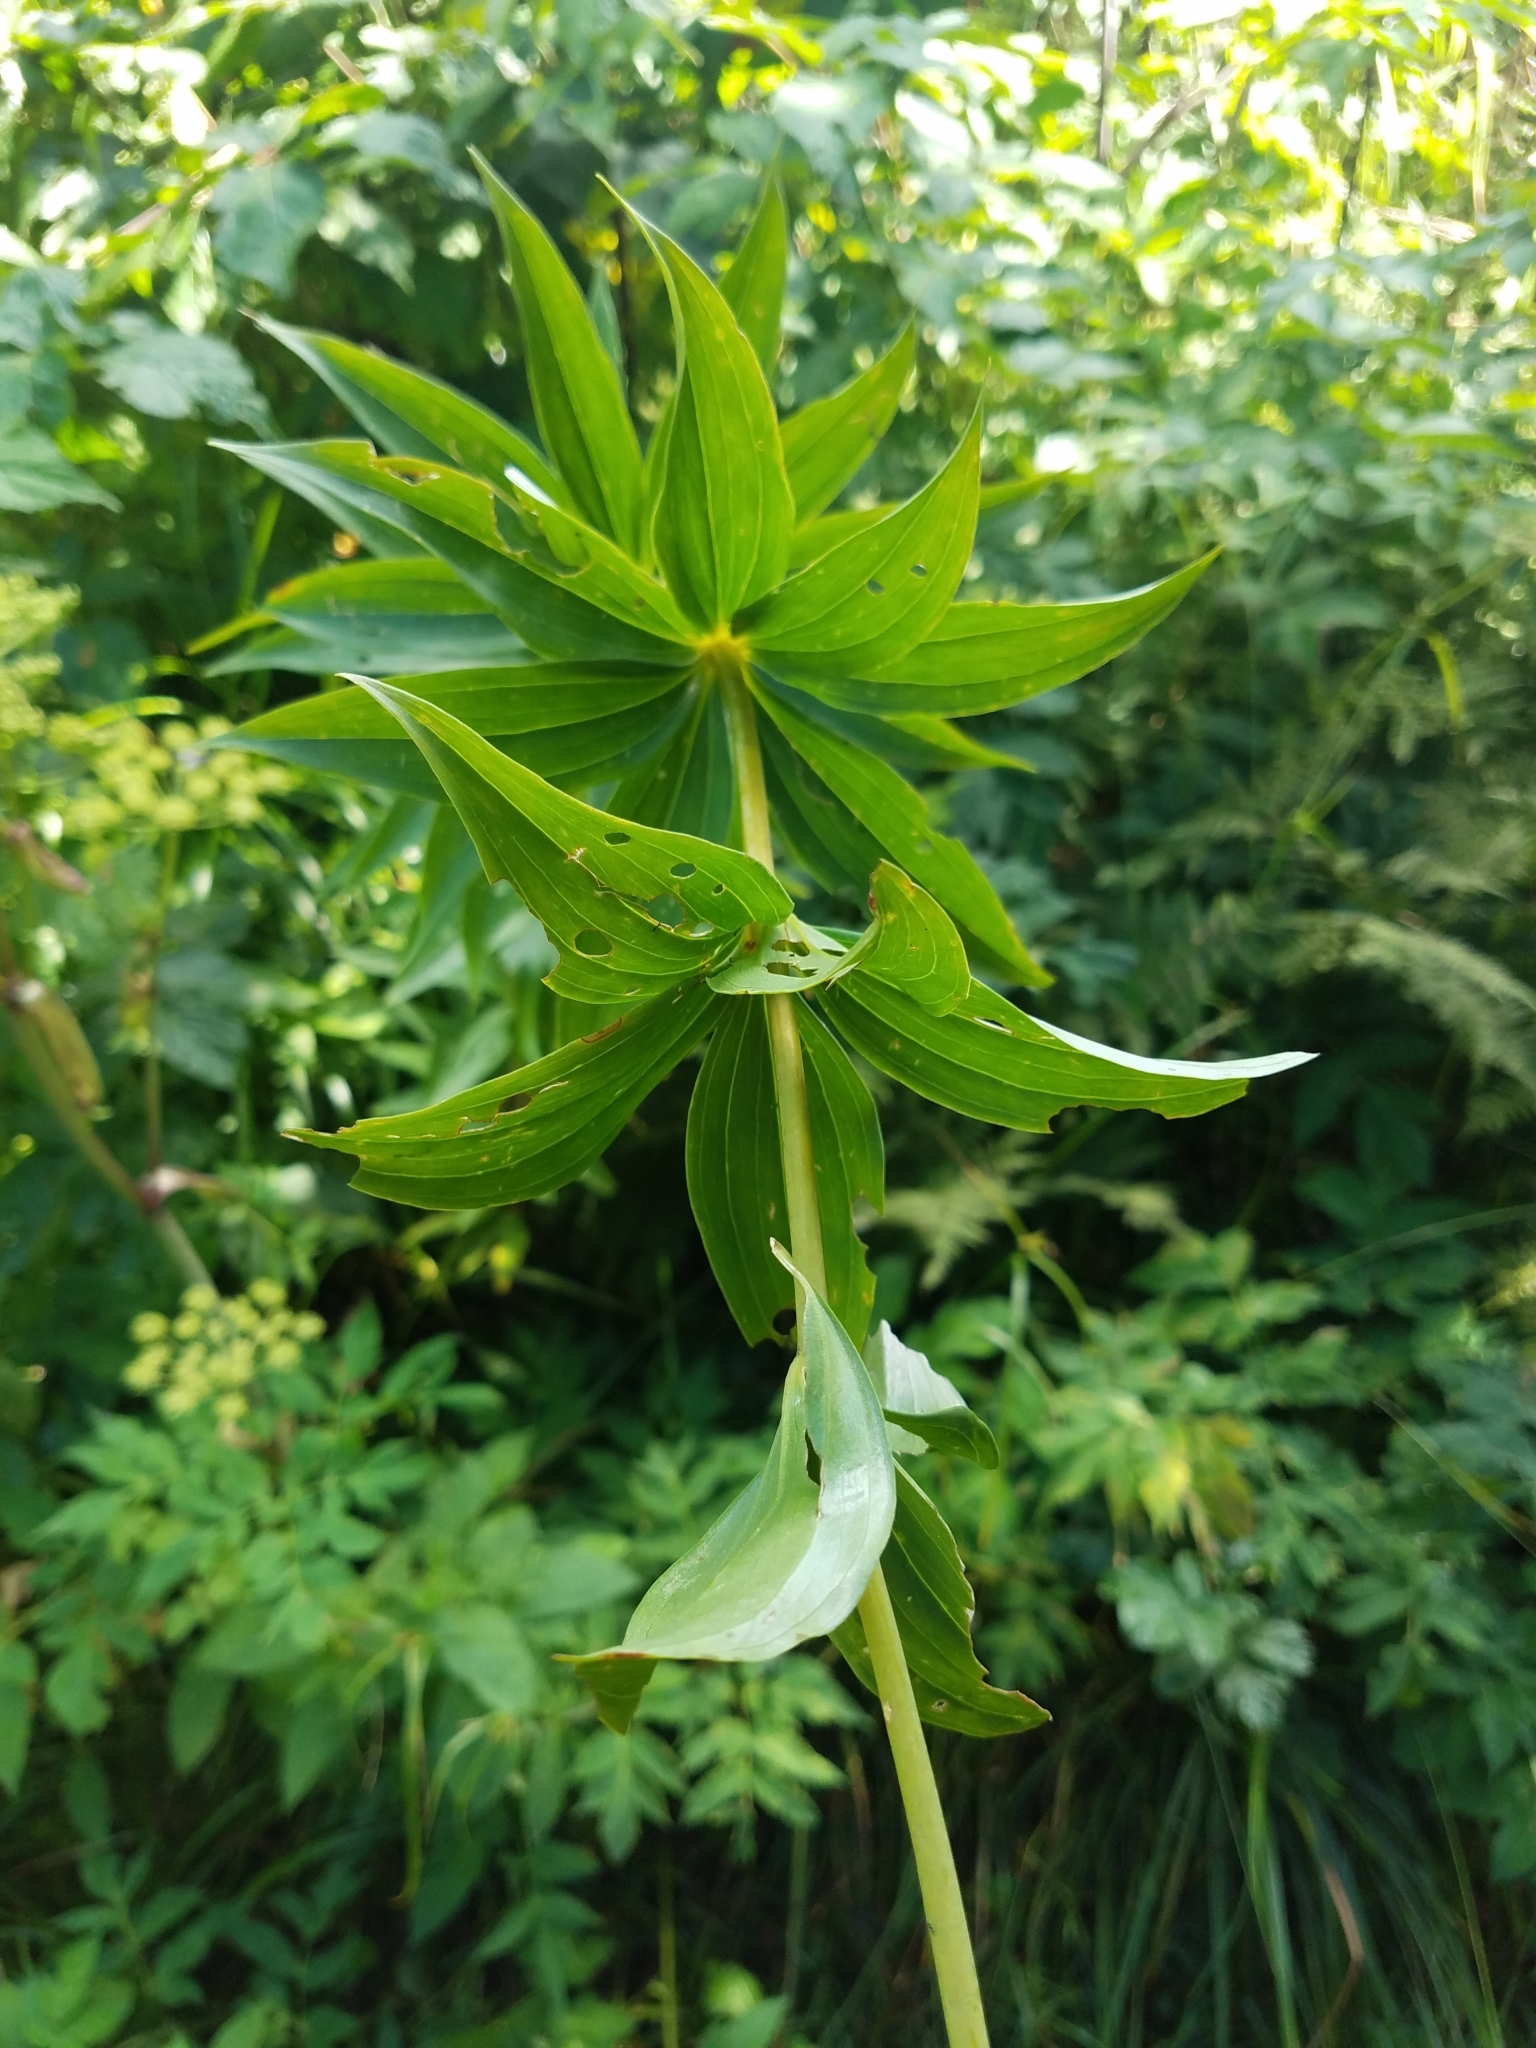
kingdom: Plantae
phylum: Tracheophyta
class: Liliopsida
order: Liliales
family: Liliaceae
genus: Lilium
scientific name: Lilium superbum
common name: American turk's-cap lily
